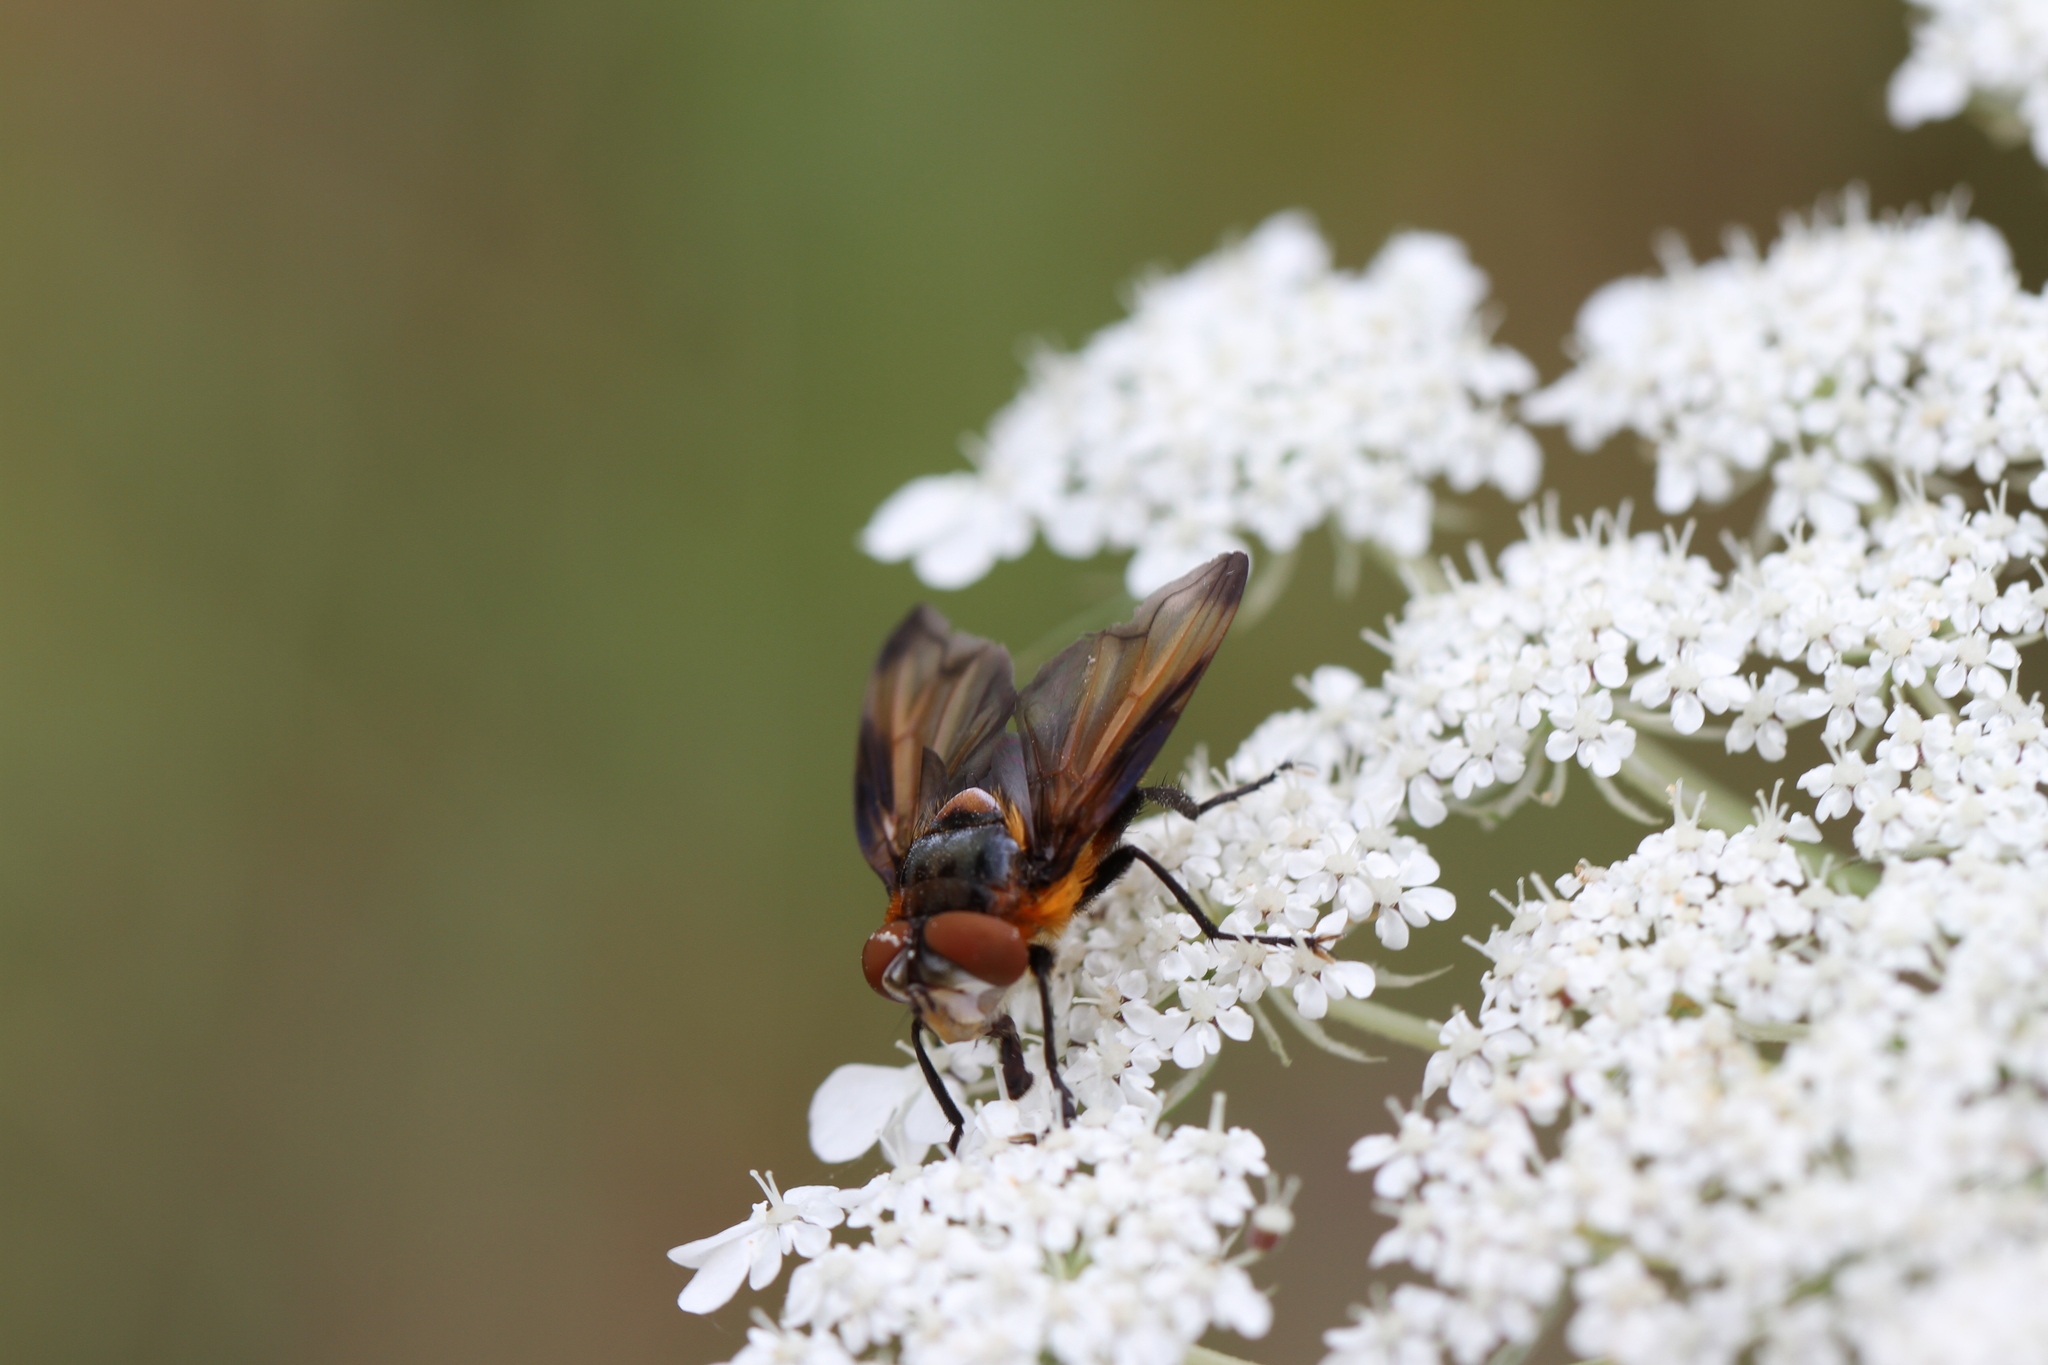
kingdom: Animalia
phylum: Arthropoda
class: Insecta
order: Diptera
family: Tachinidae
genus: Phasia
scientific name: Phasia hemiptera
